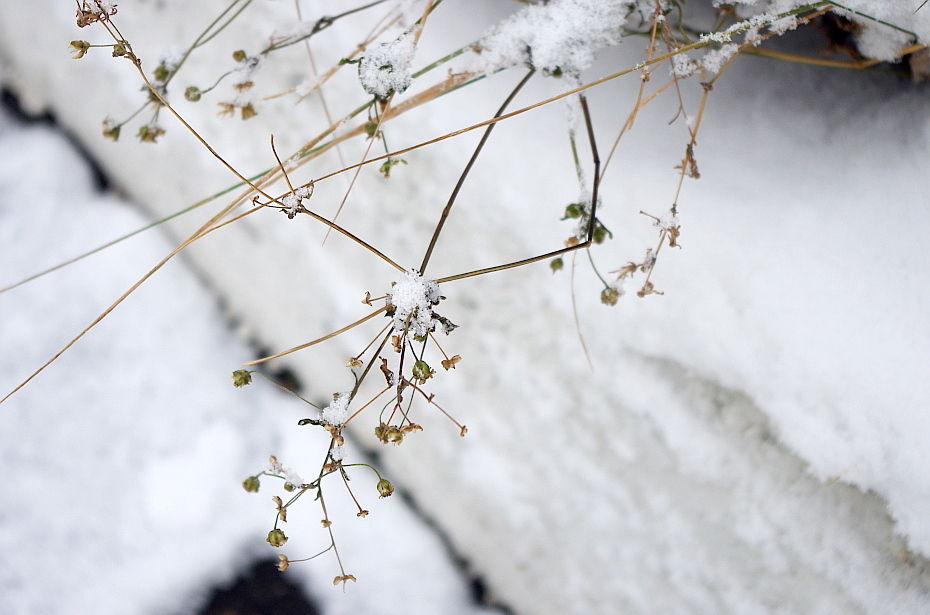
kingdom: Plantae
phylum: Tracheophyta
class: Magnoliopsida
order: Asterales
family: Asteraceae
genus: Galinsoga
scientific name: Galinsoga quadriradiata
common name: Shaggy soldier
